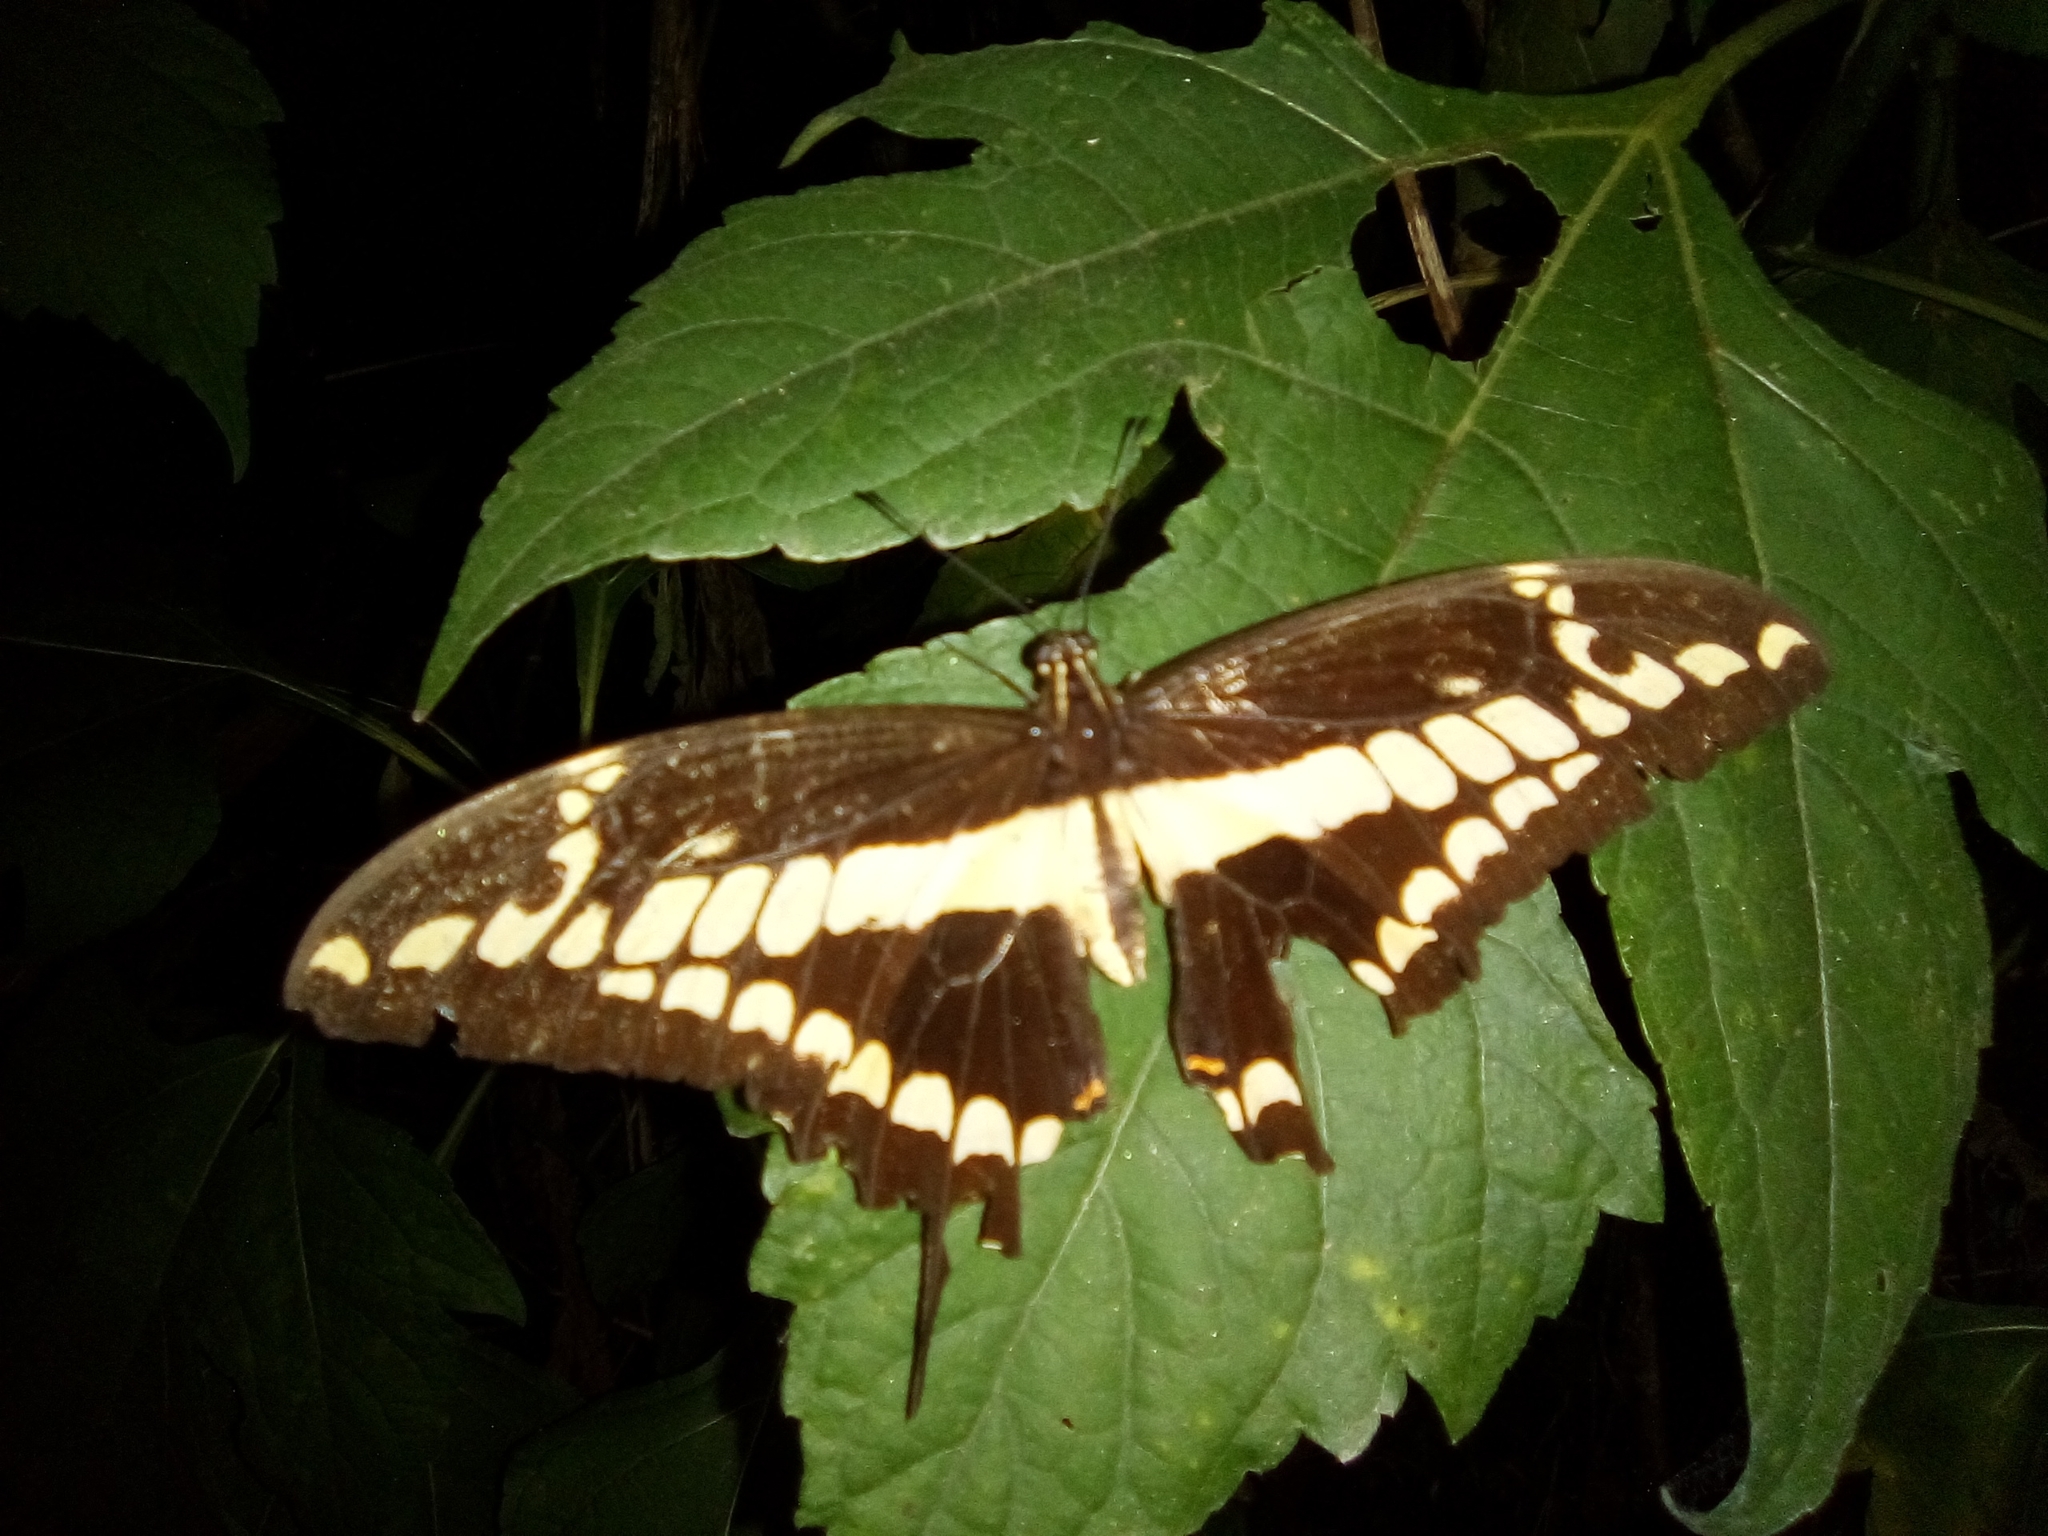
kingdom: Animalia
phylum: Arthropoda
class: Insecta
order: Lepidoptera
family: Papilionidae
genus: Papilio
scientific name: Papilio thoas
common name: King swallowtail
